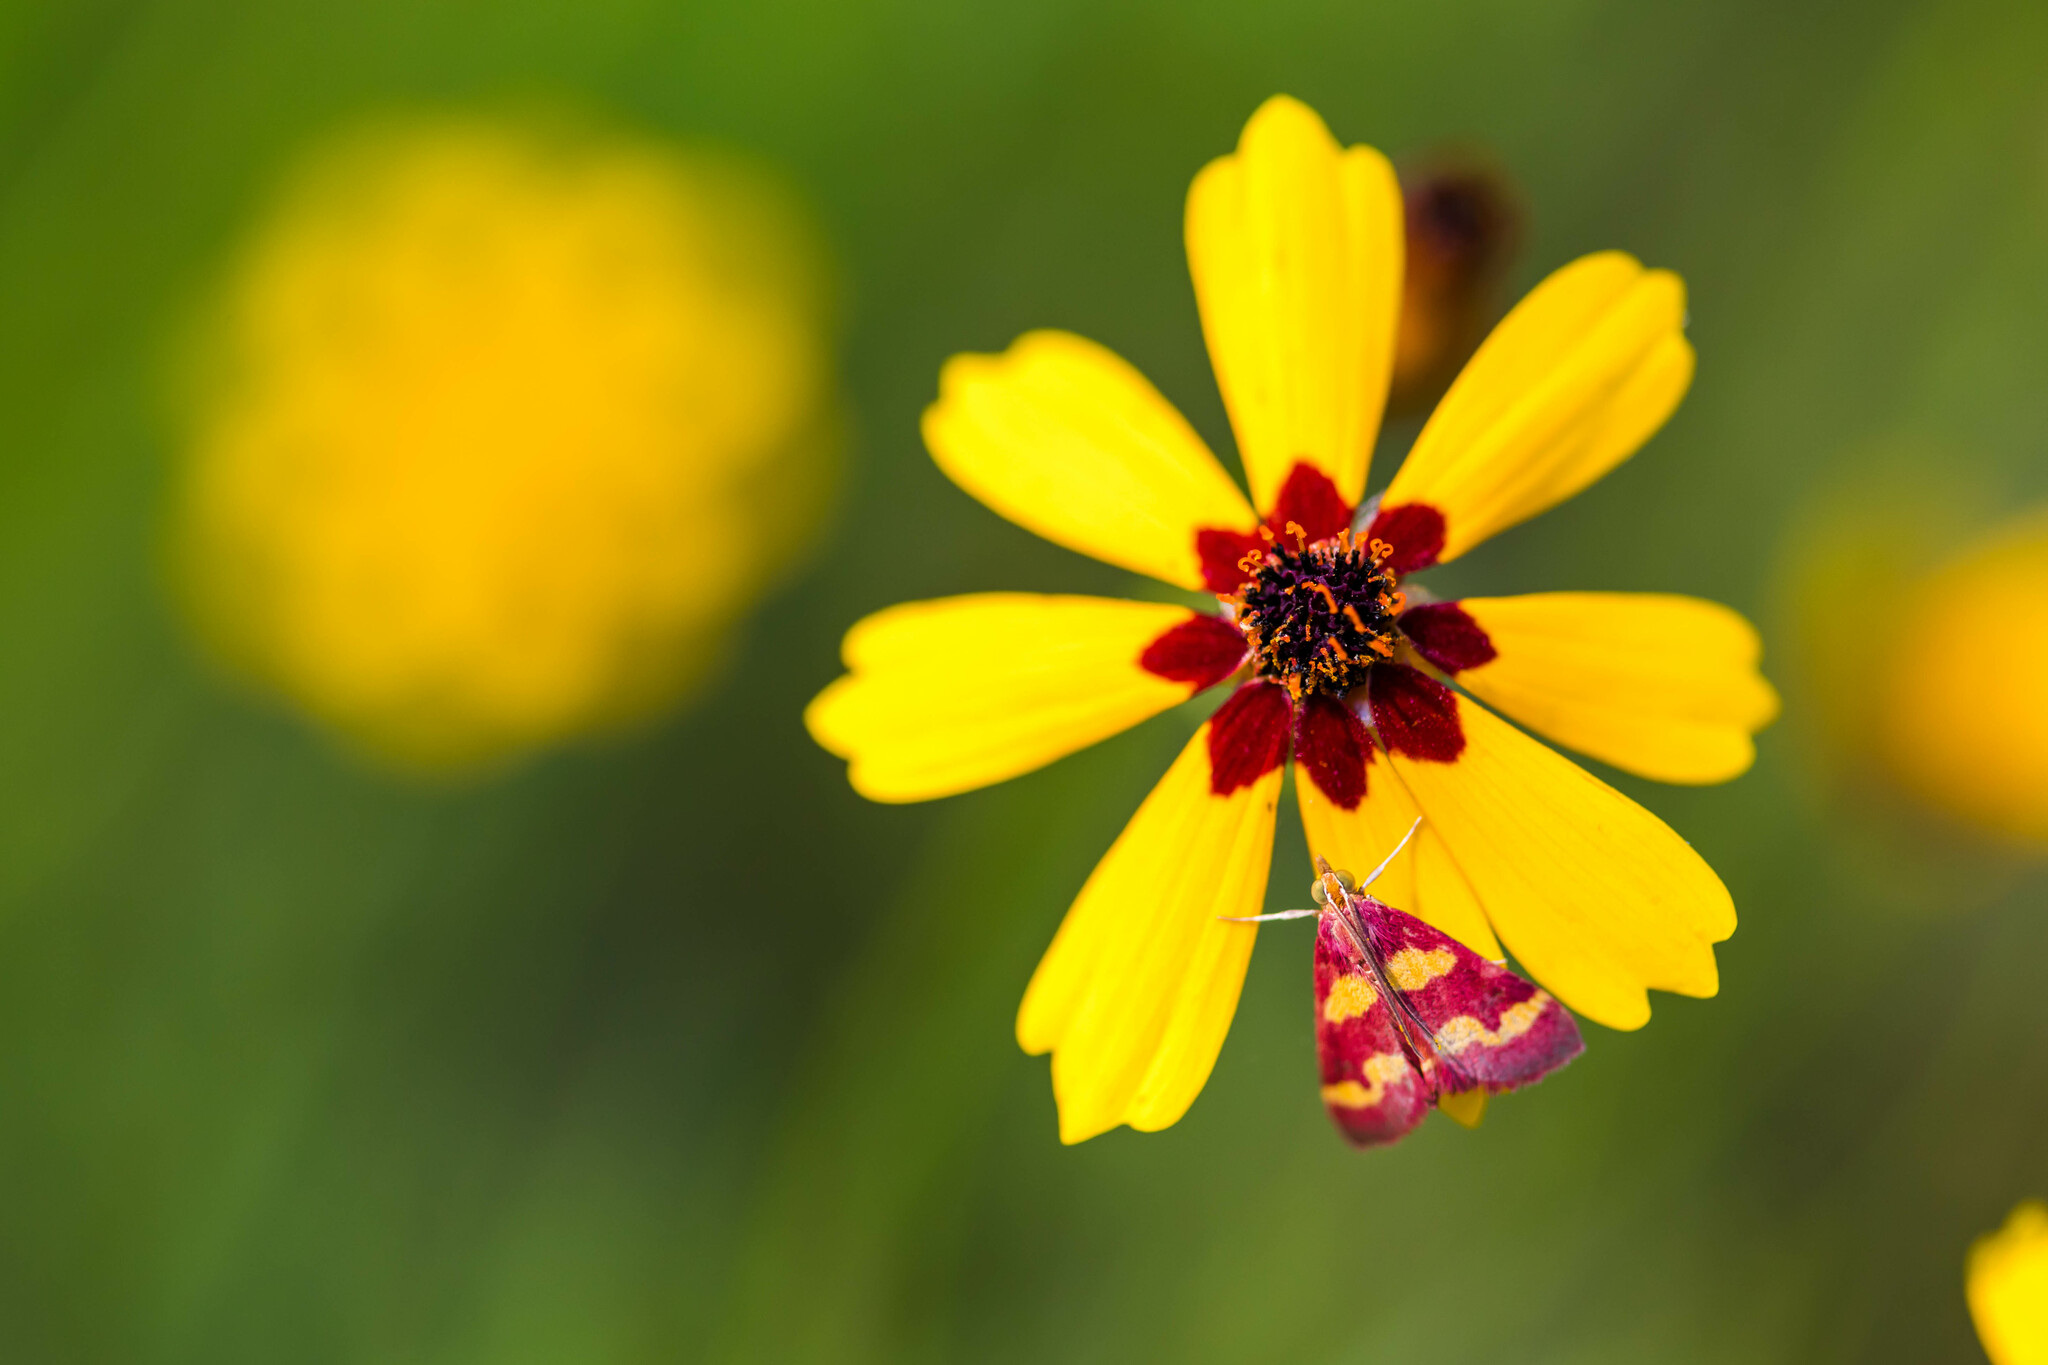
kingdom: Animalia
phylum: Arthropoda
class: Insecta
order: Lepidoptera
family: Crambidae
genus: Pyrausta
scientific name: Pyrausta tyralis
